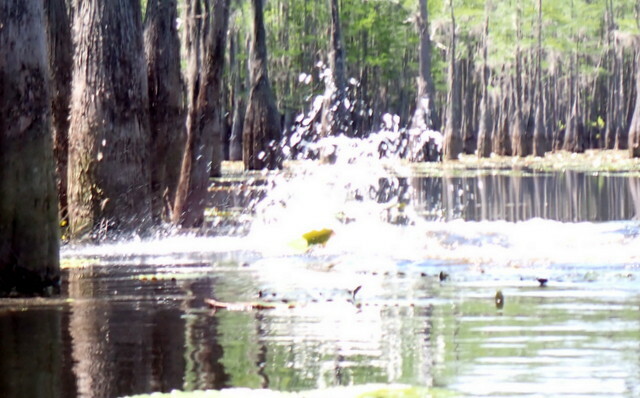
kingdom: Animalia
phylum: Chordata
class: Crocodylia
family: Alligatoridae
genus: Alligator
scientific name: Alligator mississippiensis
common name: American alligator
